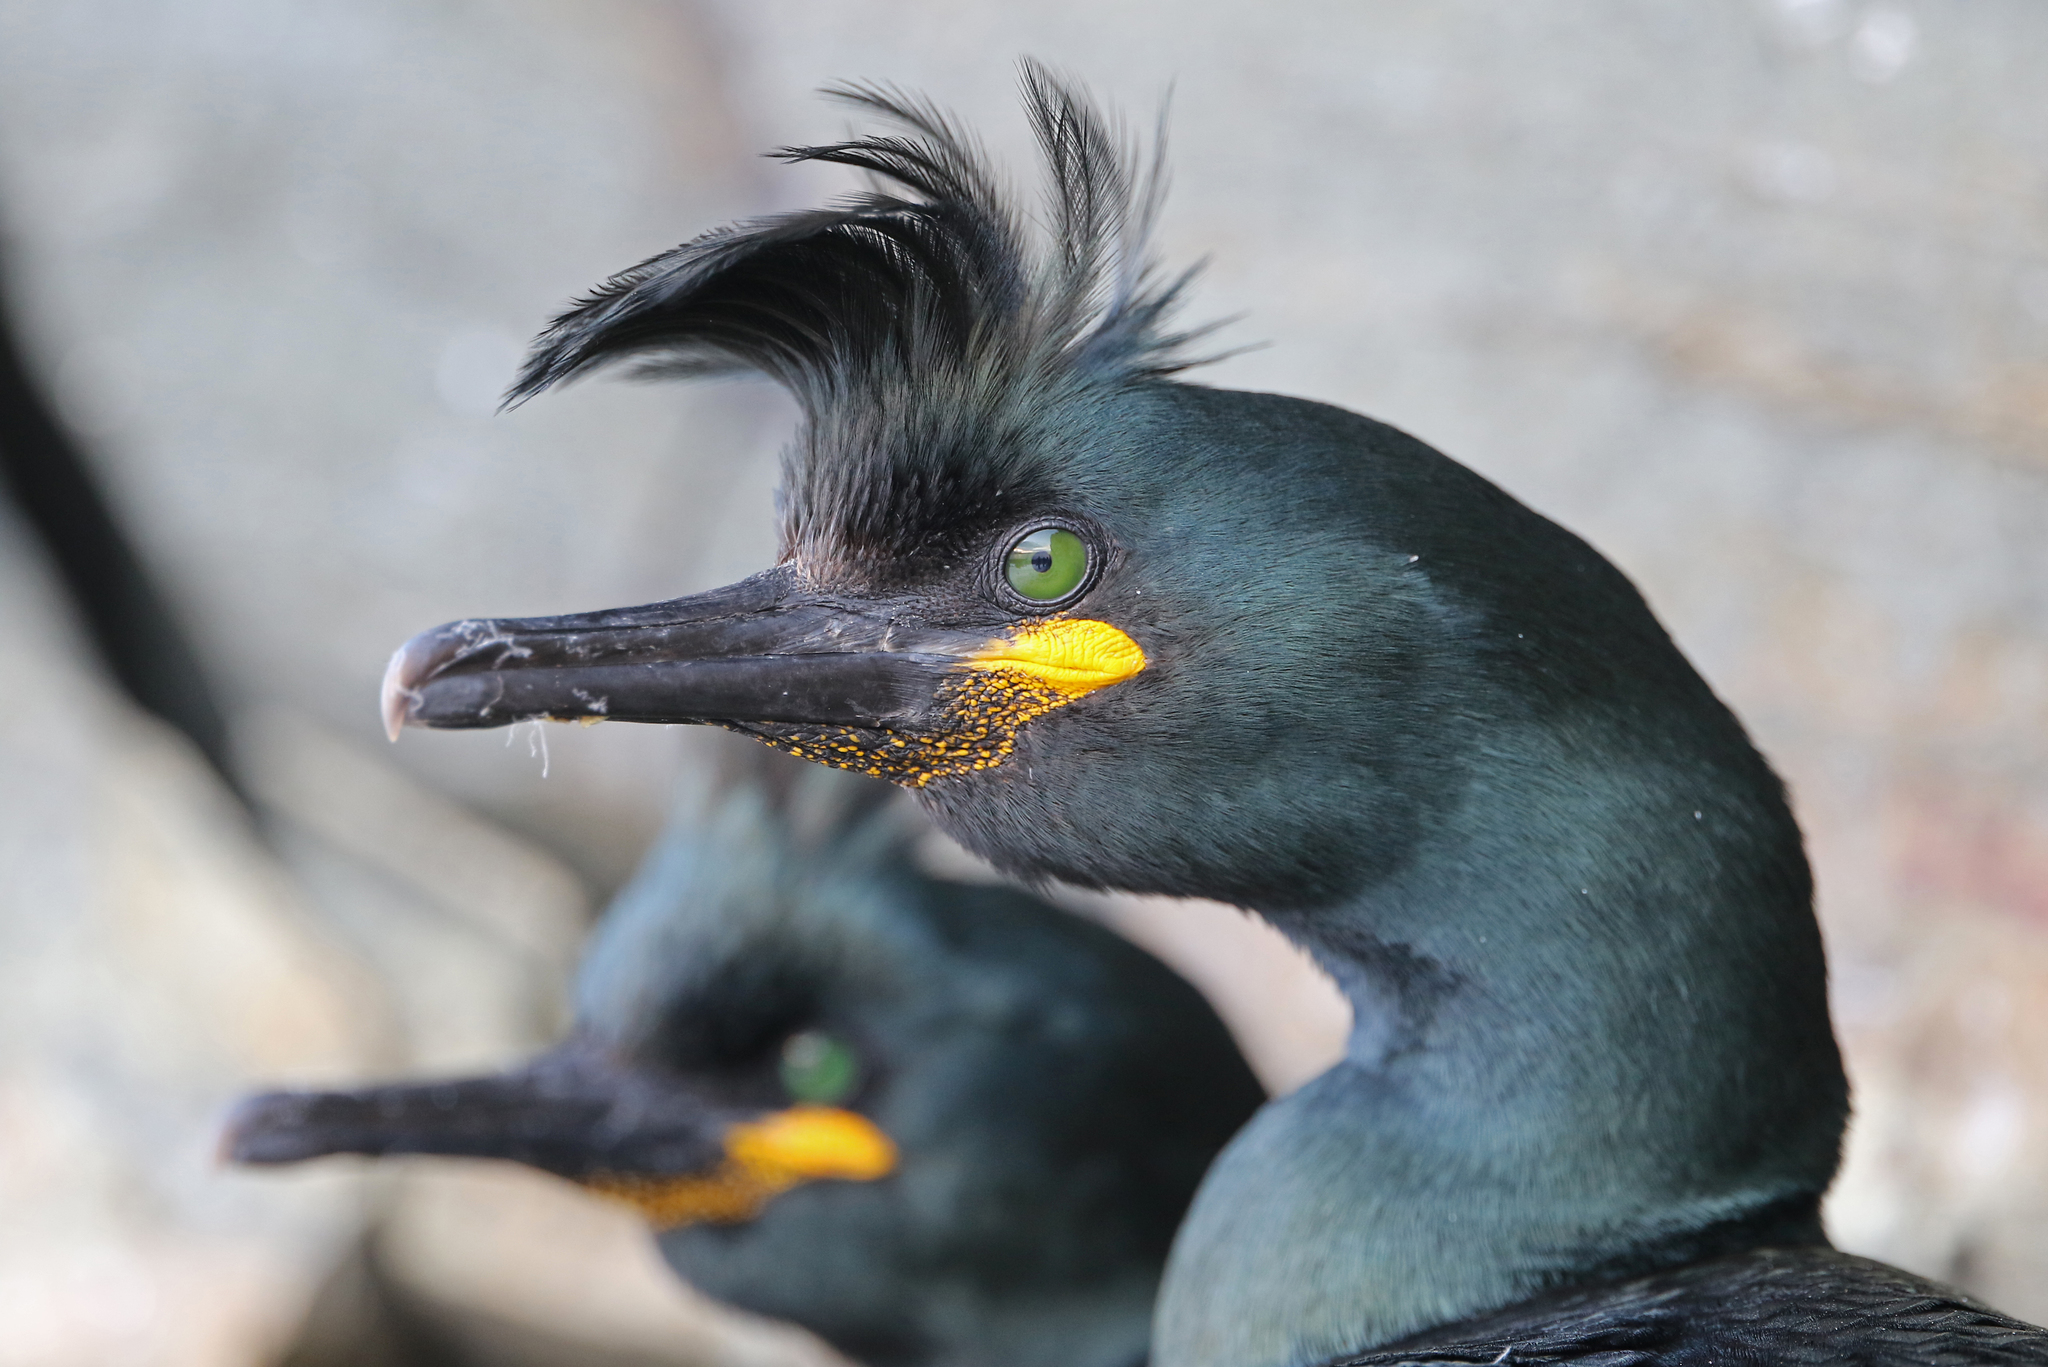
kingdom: Animalia
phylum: Chordata
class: Aves
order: Suliformes
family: Phalacrocoracidae
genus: Phalacrocorax
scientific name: Phalacrocorax aristotelis
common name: European shag
